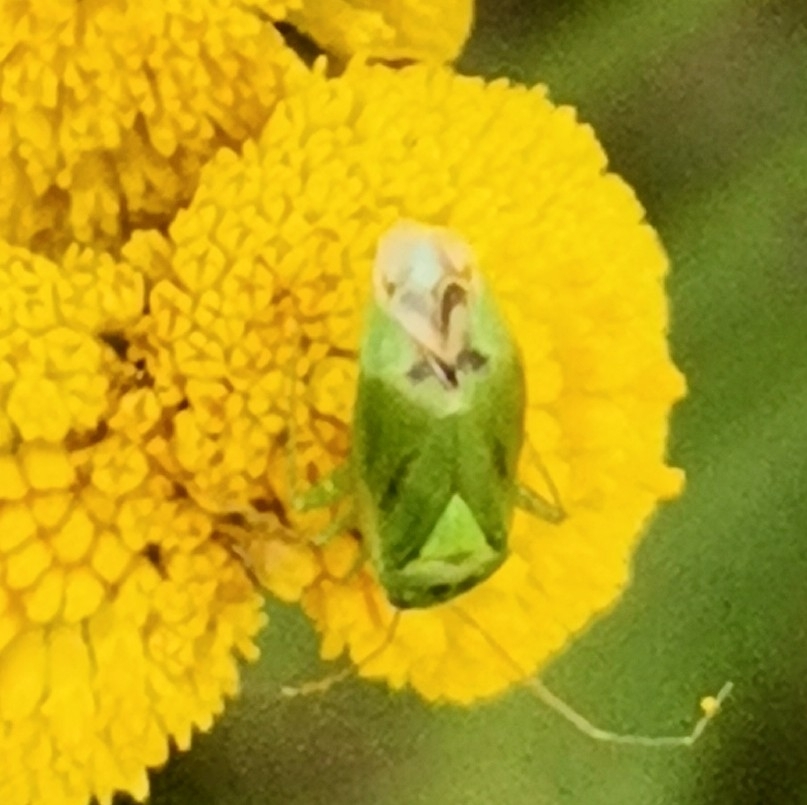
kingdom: Animalia
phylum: Arthropoda
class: Insecta
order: Hemiptera
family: Miridae
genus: Apolygus
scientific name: Apolygus lucorum
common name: Plant bug
